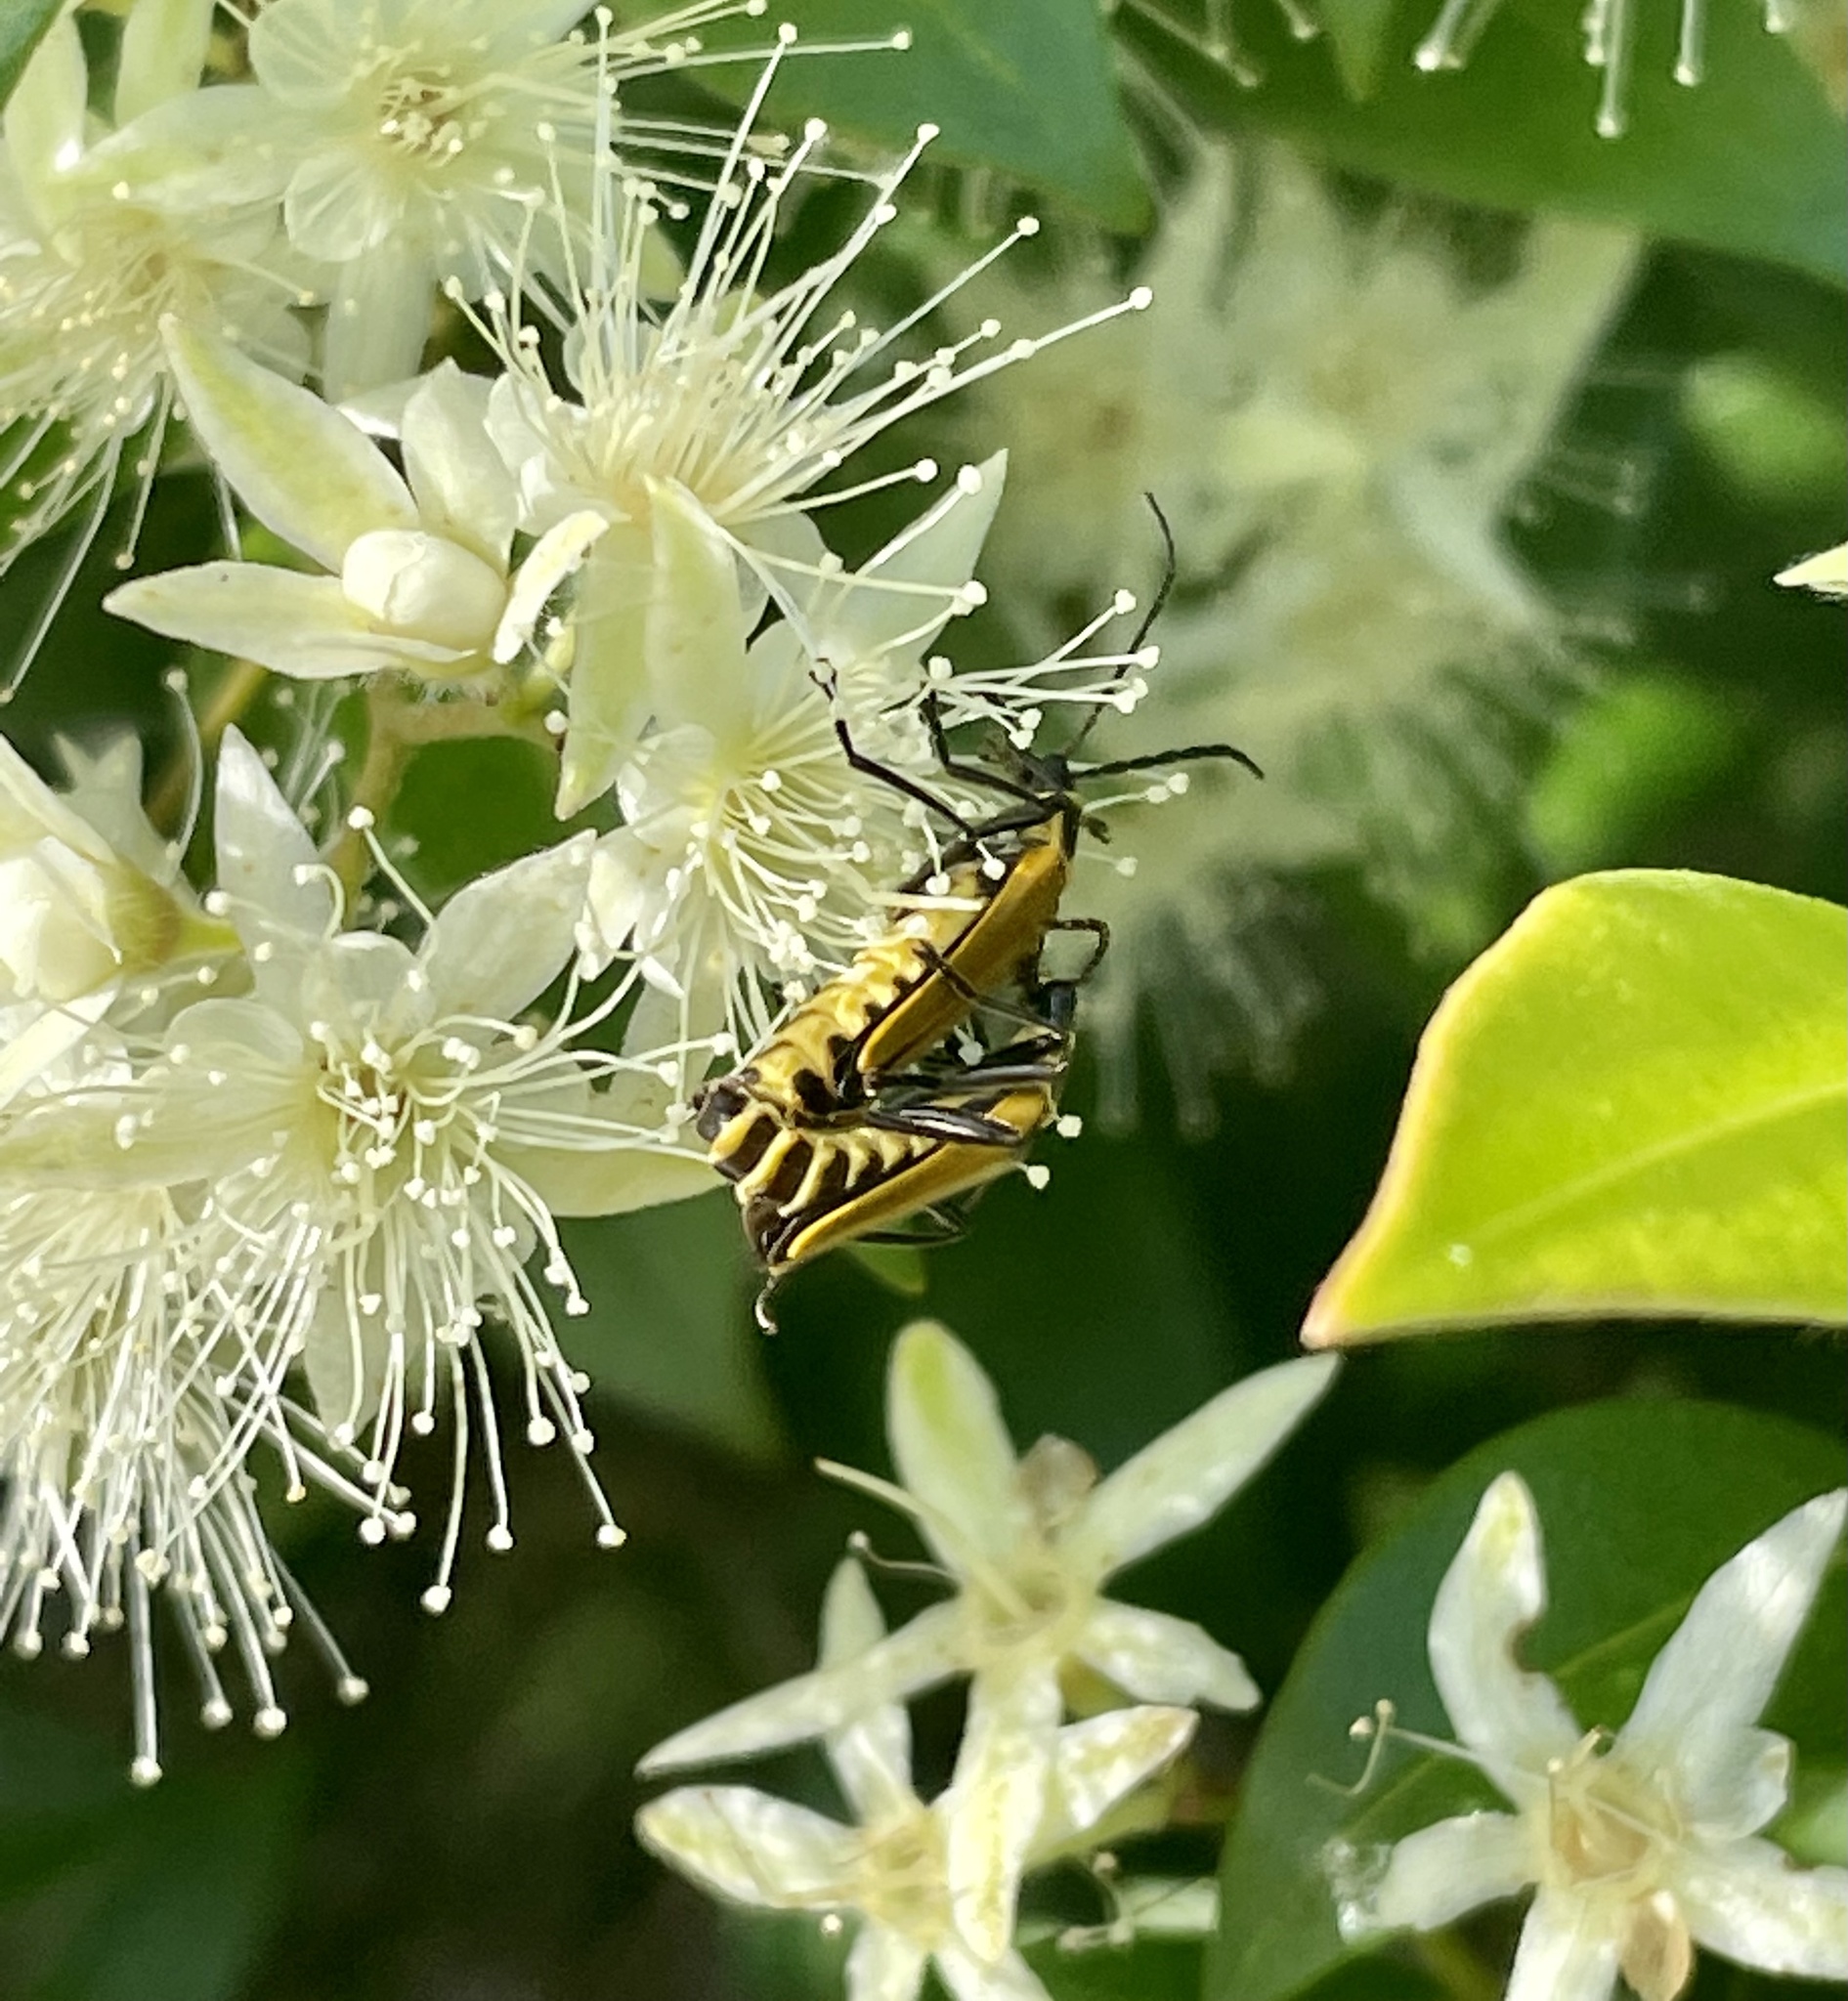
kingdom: Animalia
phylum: Arthropoda
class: Insecta
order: Coleoptera
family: Cantharidae
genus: Chauliognathus
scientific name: Chauliognathus
